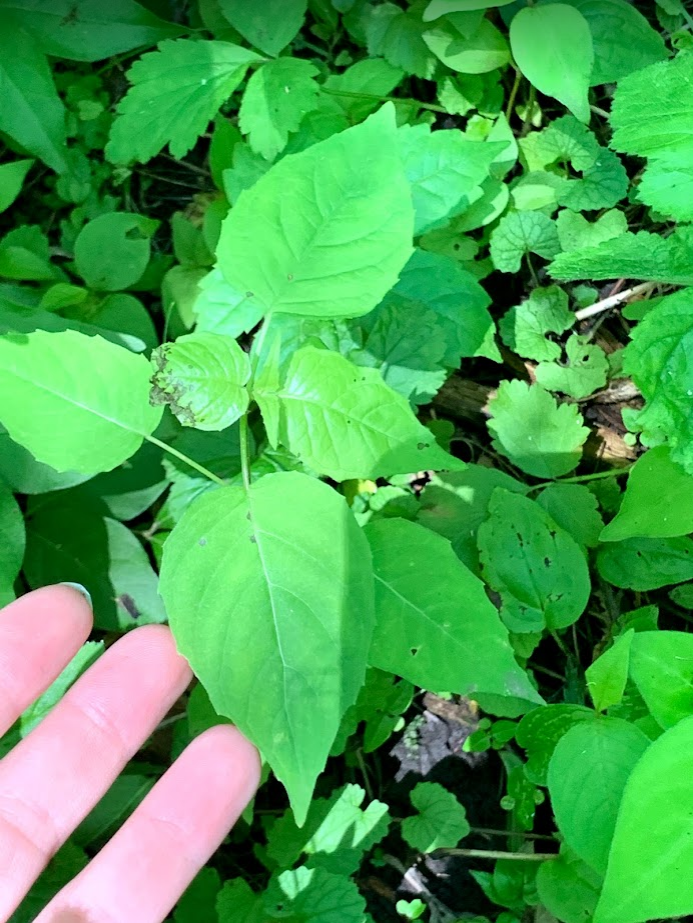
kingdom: Plantae
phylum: Tracheophyta
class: Magnoliopsida
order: Myrtales
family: Onagraceae
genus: Circaea
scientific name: Circaea canadensis
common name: Broad-leaved enchanter's nightshade
